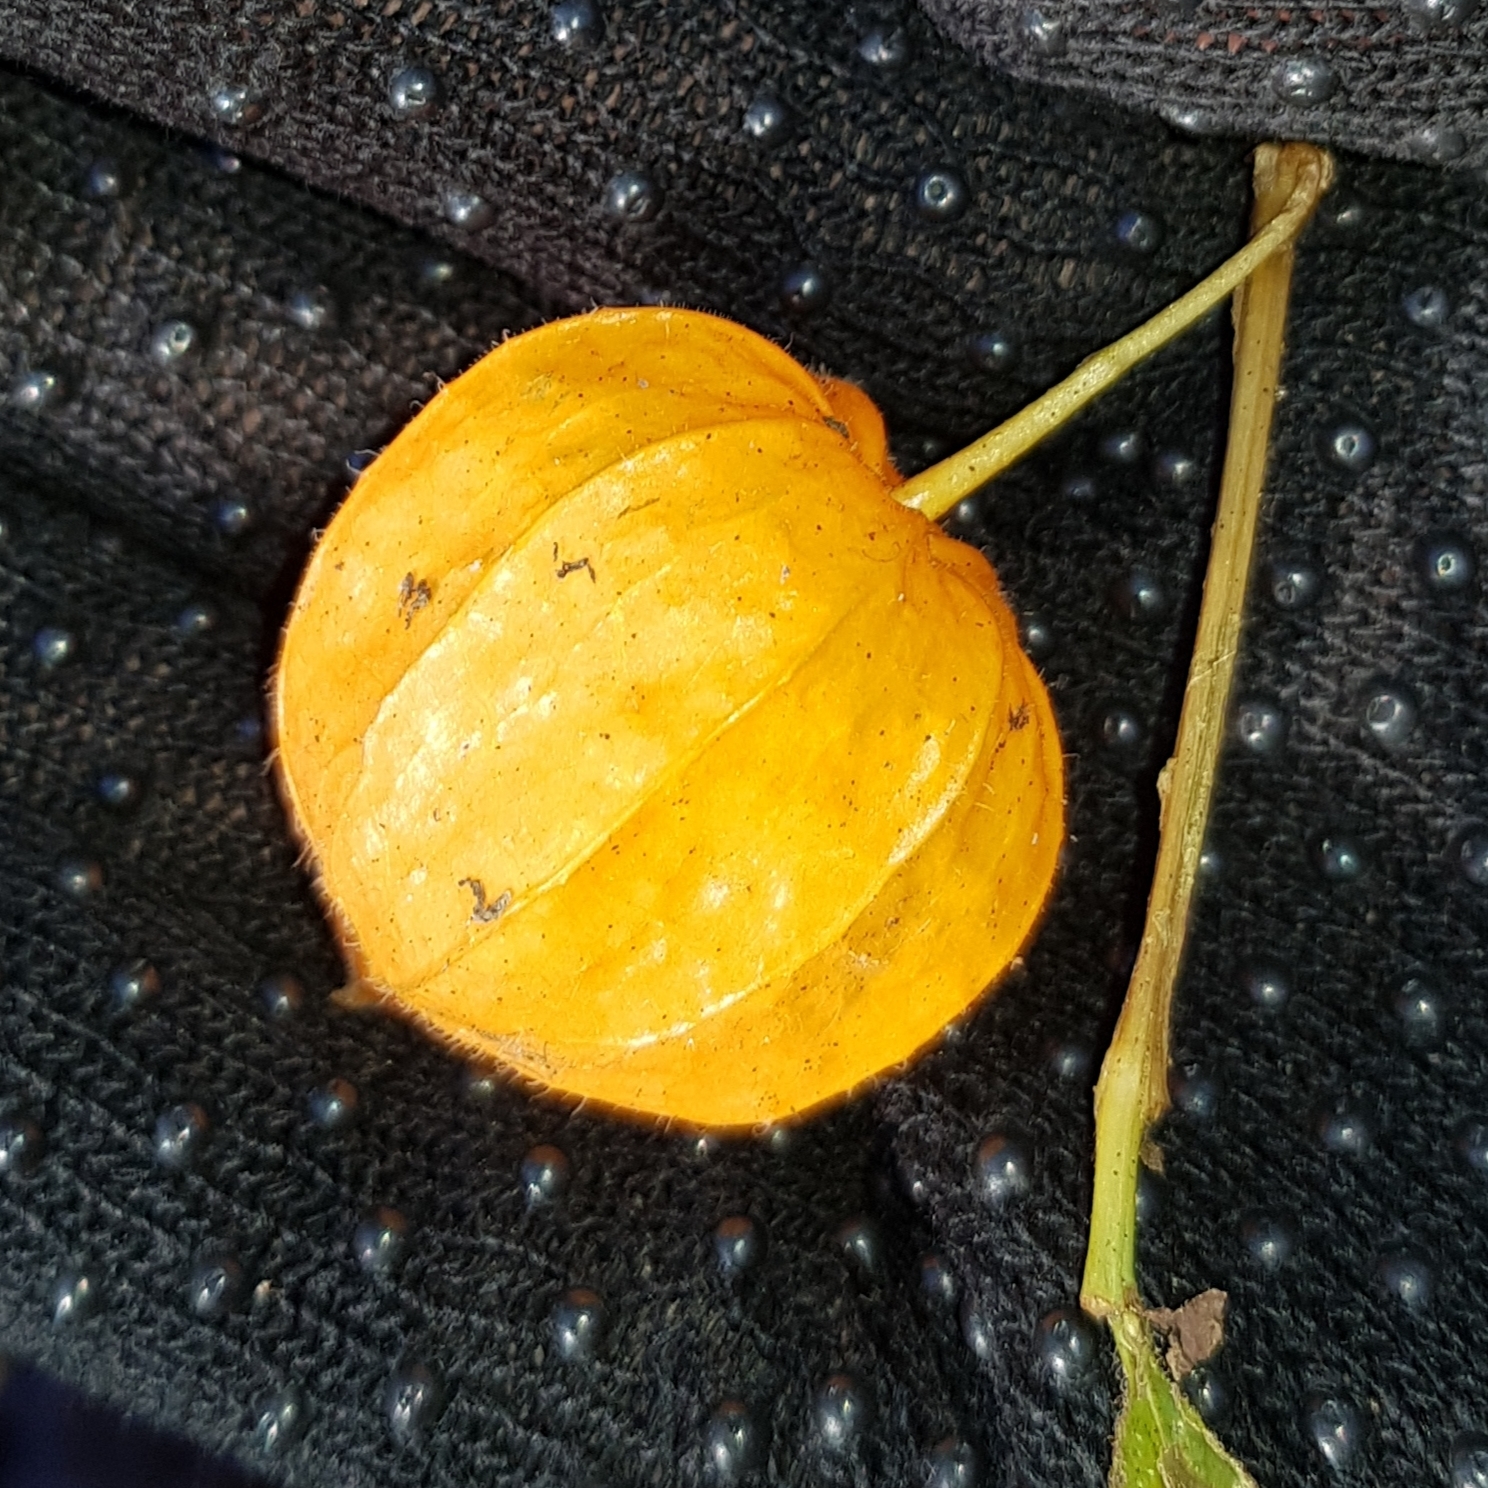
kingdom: Plantae
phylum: Tracheophyta
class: Magnoliopsida
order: Solanales
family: Solanaceae
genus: Alkekengi
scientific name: Alkekengi officinarum
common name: Japanese-lantern
